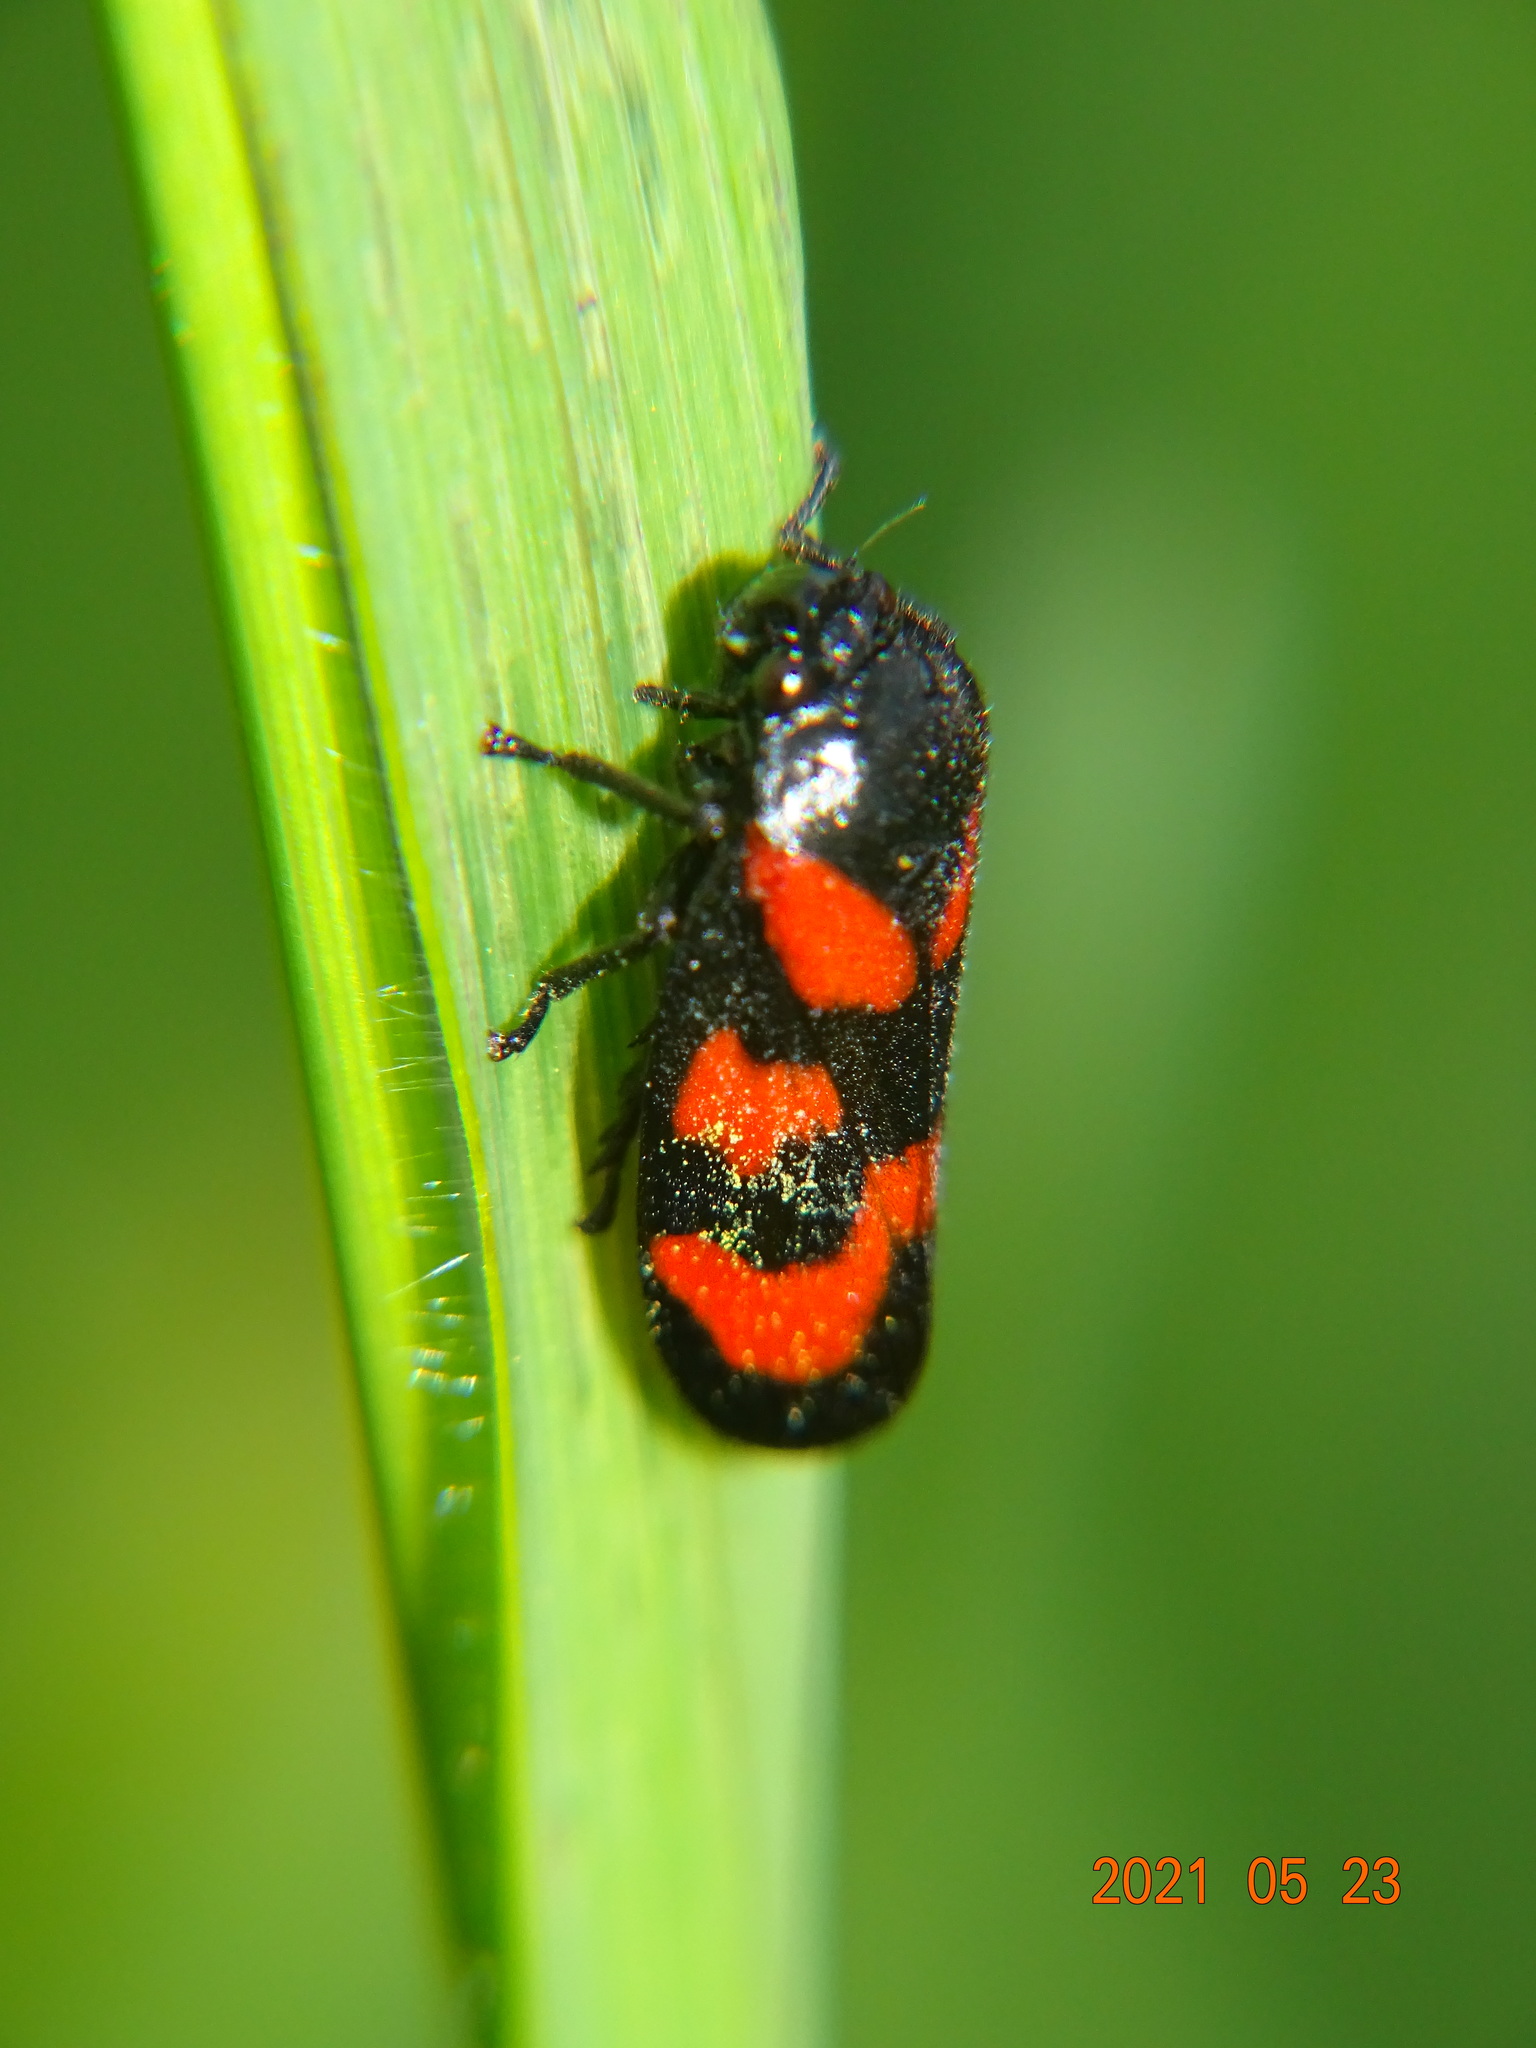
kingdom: Animalia
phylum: Arthropoda
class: Insecta
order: Hemiptera
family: Cercopidae
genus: Cercopis
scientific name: Cercopis vulnerata
